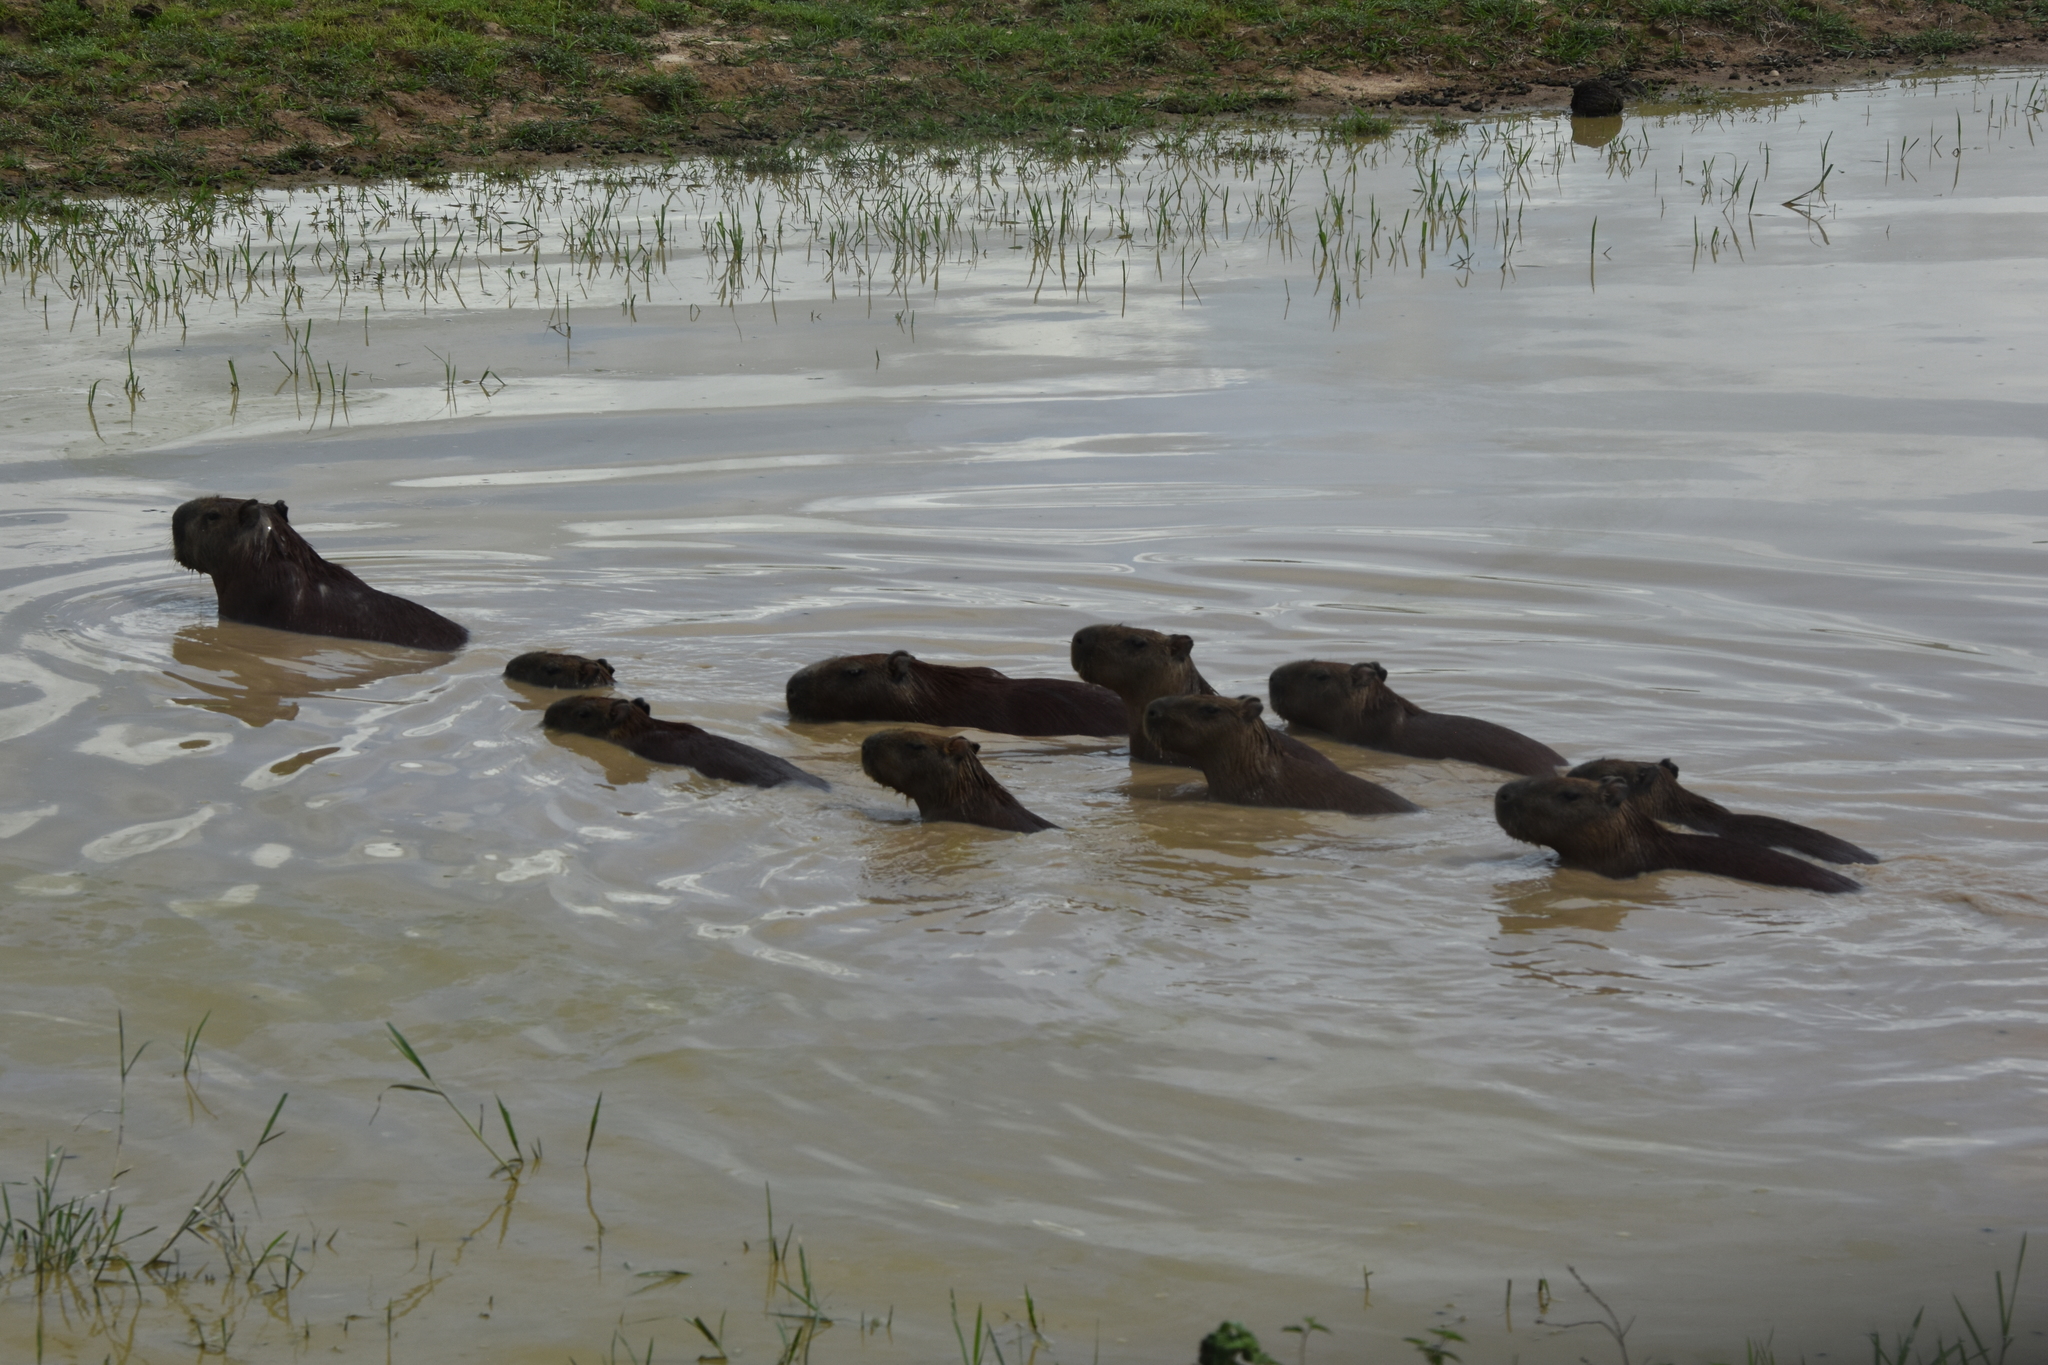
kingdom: Animalia
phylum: Chordata
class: Mammalia
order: Rodentia
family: Caviidae
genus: Hydrochoerus
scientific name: Hydrochoerus hydrochaeris
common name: Capybara
